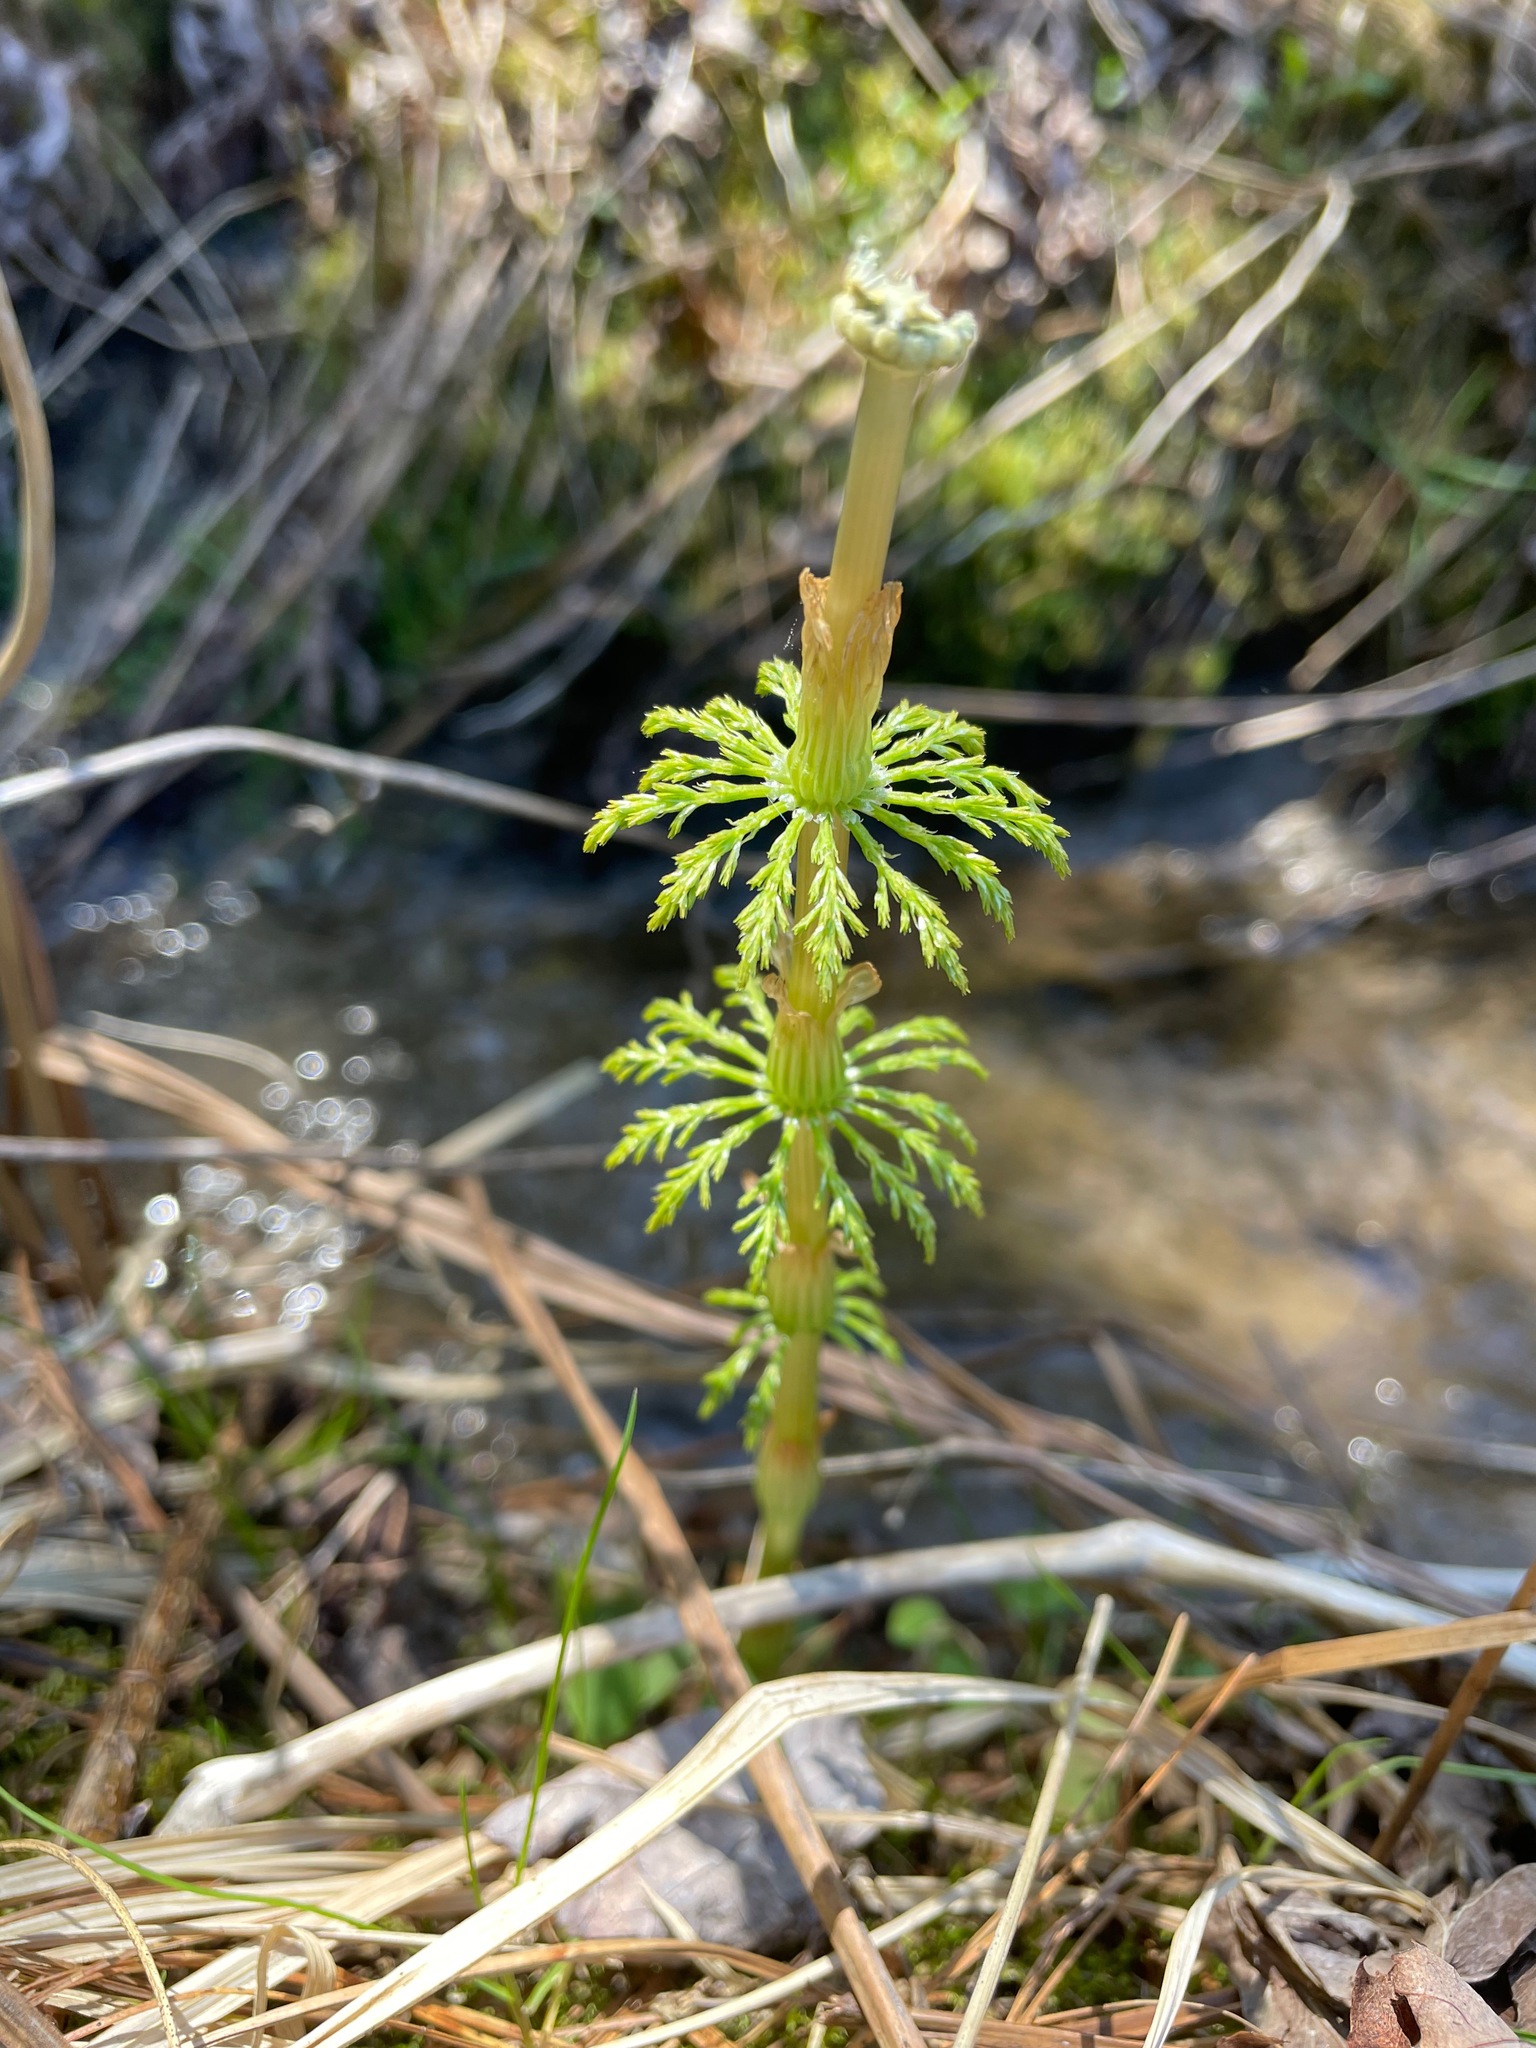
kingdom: Plantae
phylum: Tracheophyta
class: Polypodiopsida
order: Equisetales
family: Equisetaceae
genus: Equisetum
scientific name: Equisetum sylvaticum
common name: Wood horsetail
